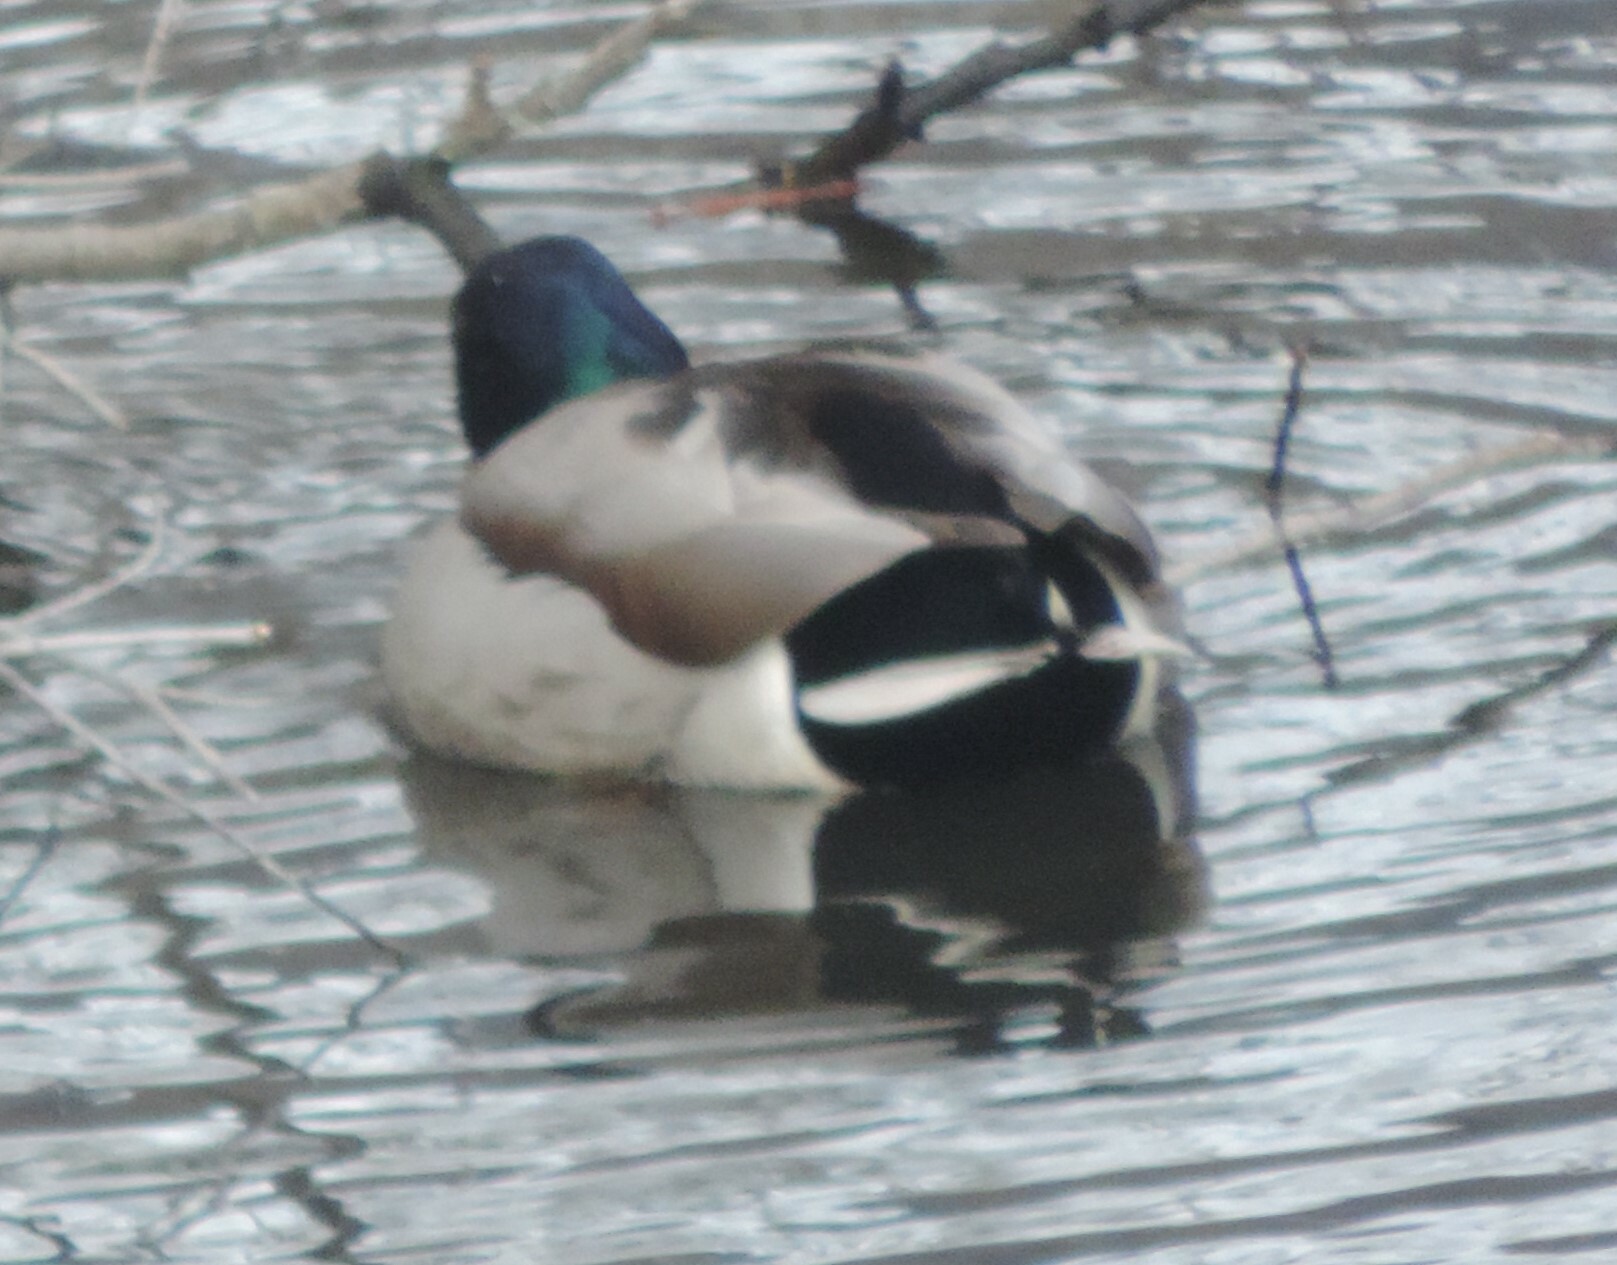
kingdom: Animalia
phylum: Chordata
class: Aves
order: Anseriformes
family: Anatidae
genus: Anas
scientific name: Anas platyrhynchos
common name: Mallard
